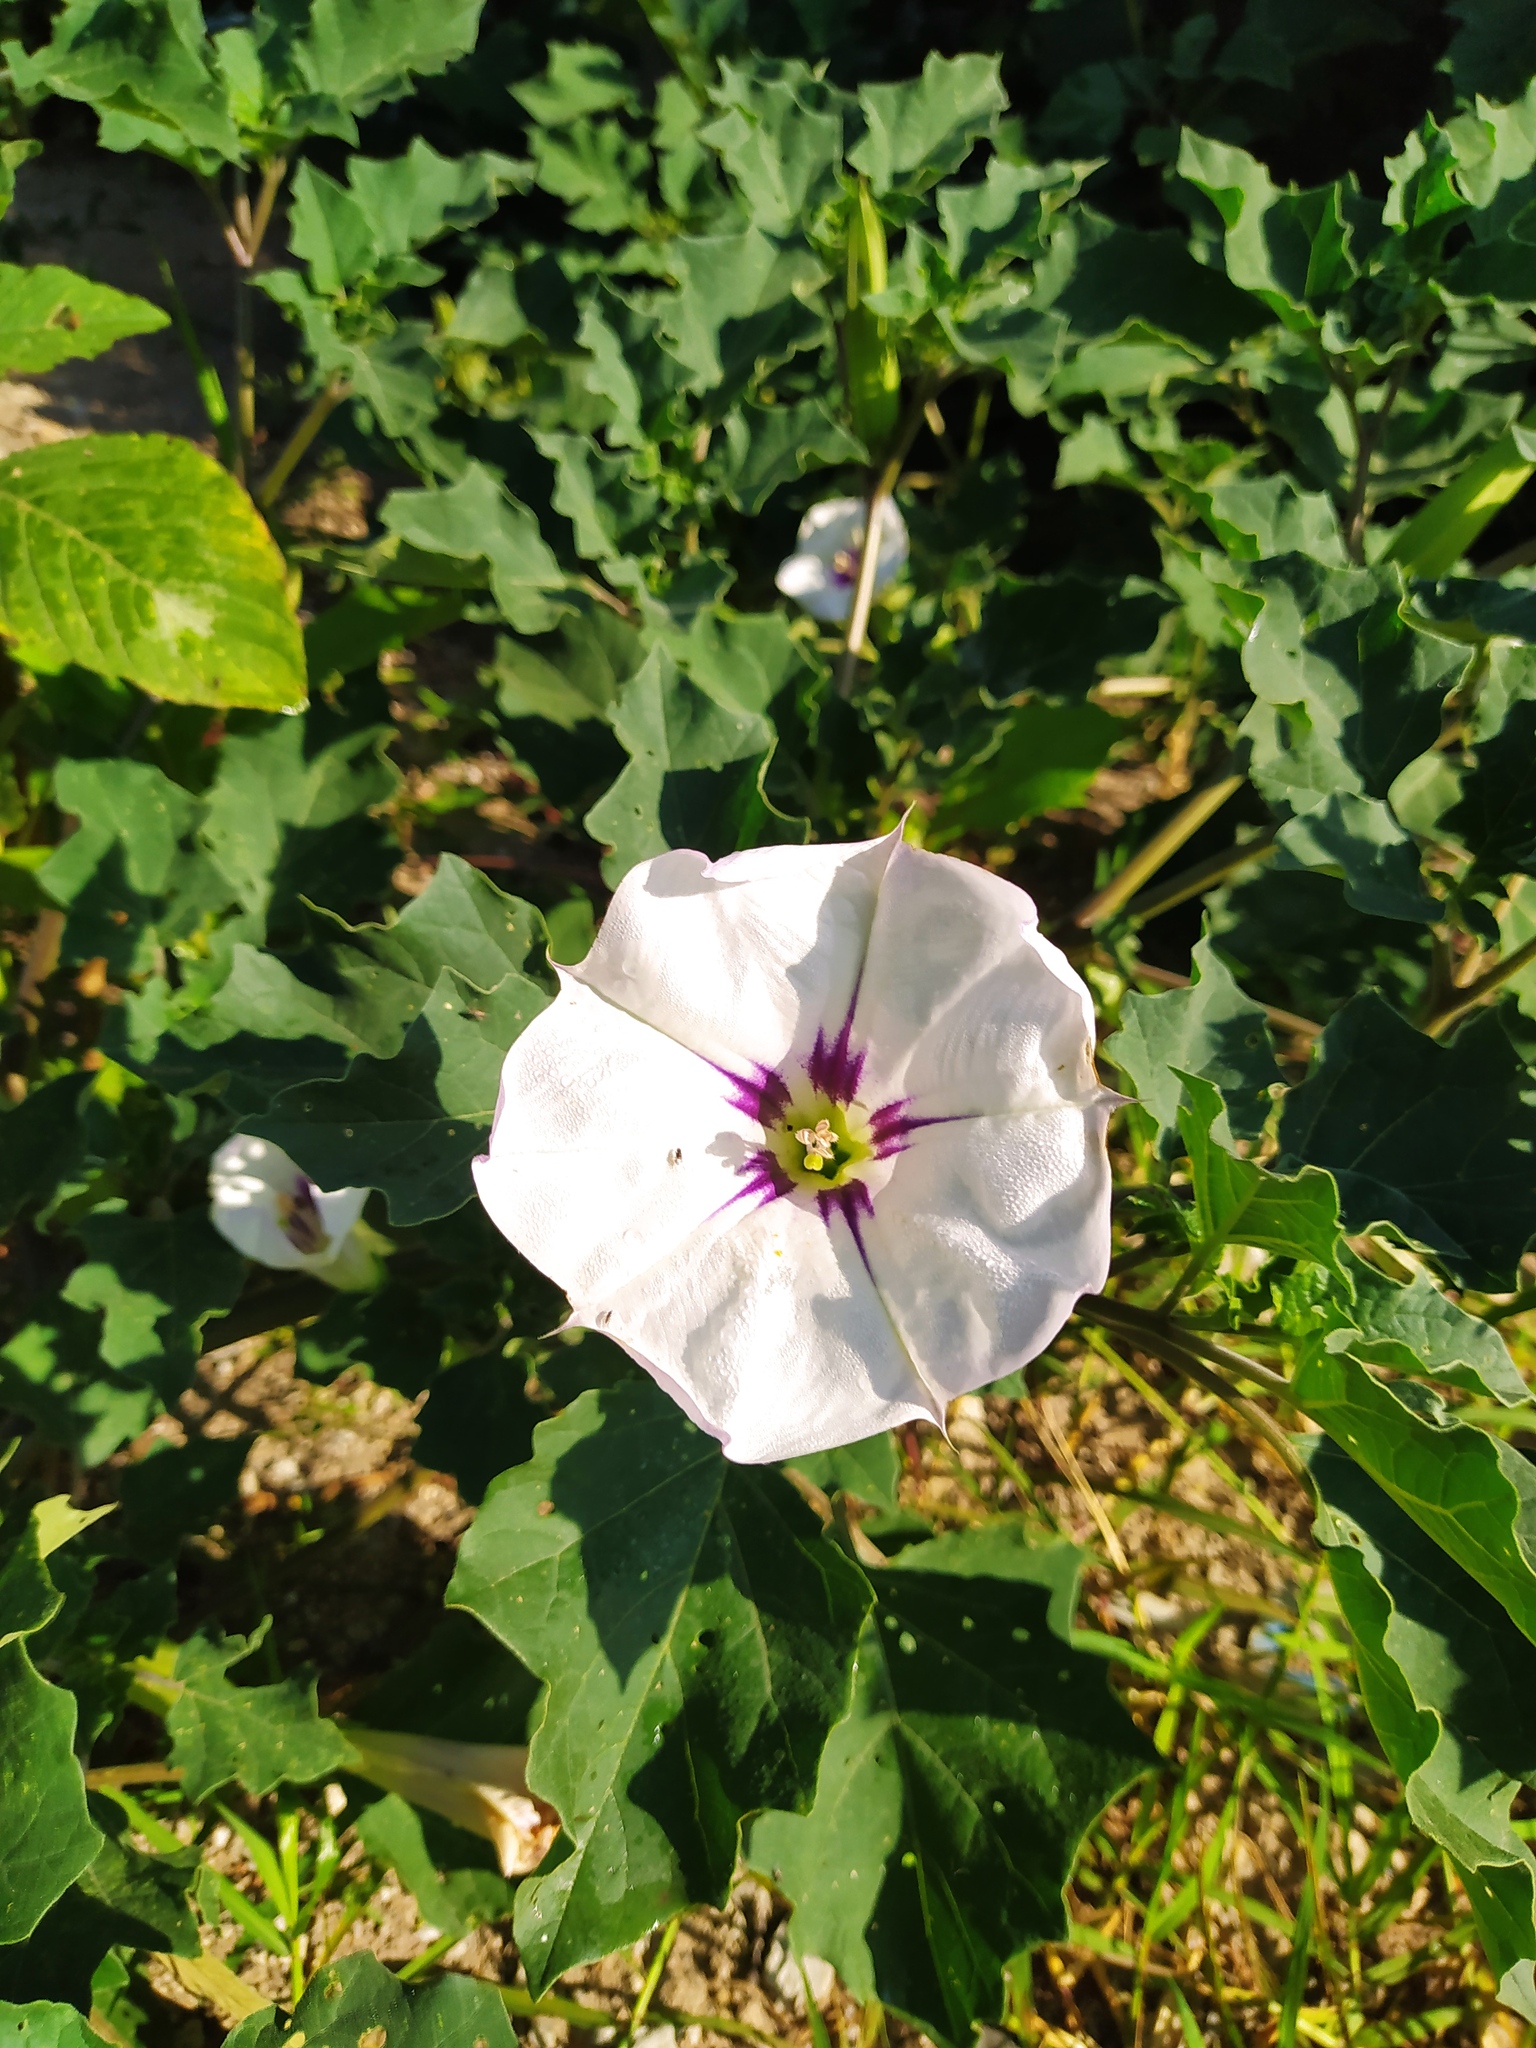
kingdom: Plantae
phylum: Tracheophyta
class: Magnoliopsida
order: Solanales
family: Solanaceae
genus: Datura
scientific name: Datura discolor
